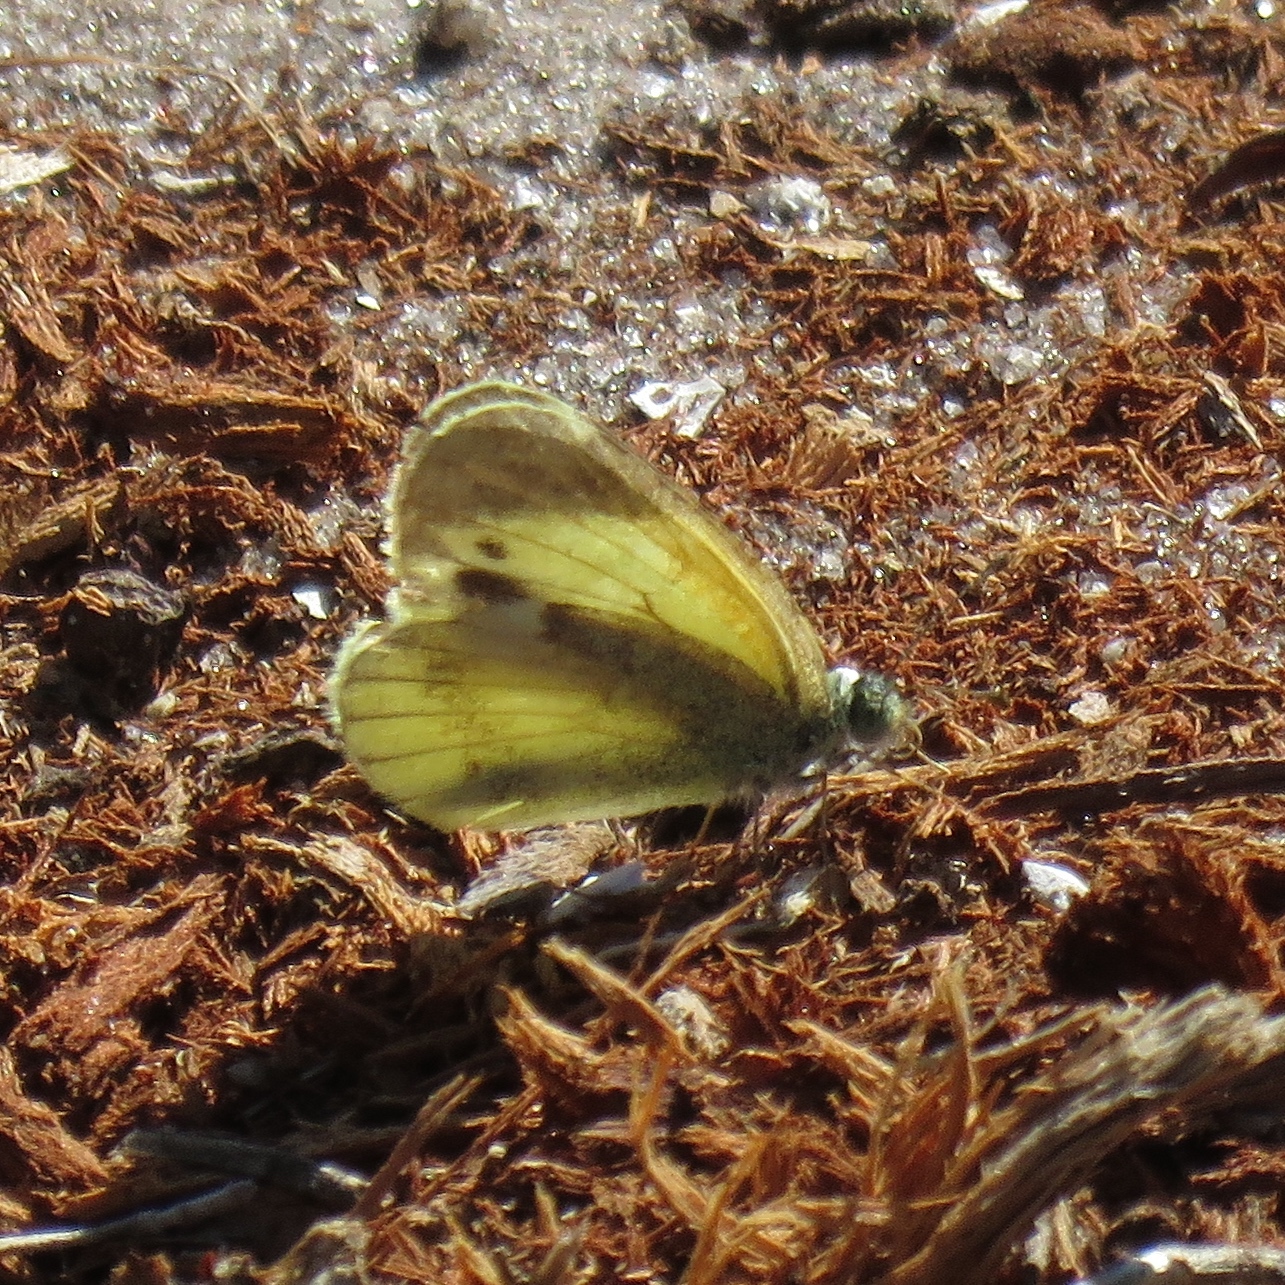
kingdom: Animalia
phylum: Arthropoda
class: Insecta
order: Lepidoptera
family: Pieridae
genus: Nathalis
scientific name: Nathalis iole
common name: Dainty sulphur
